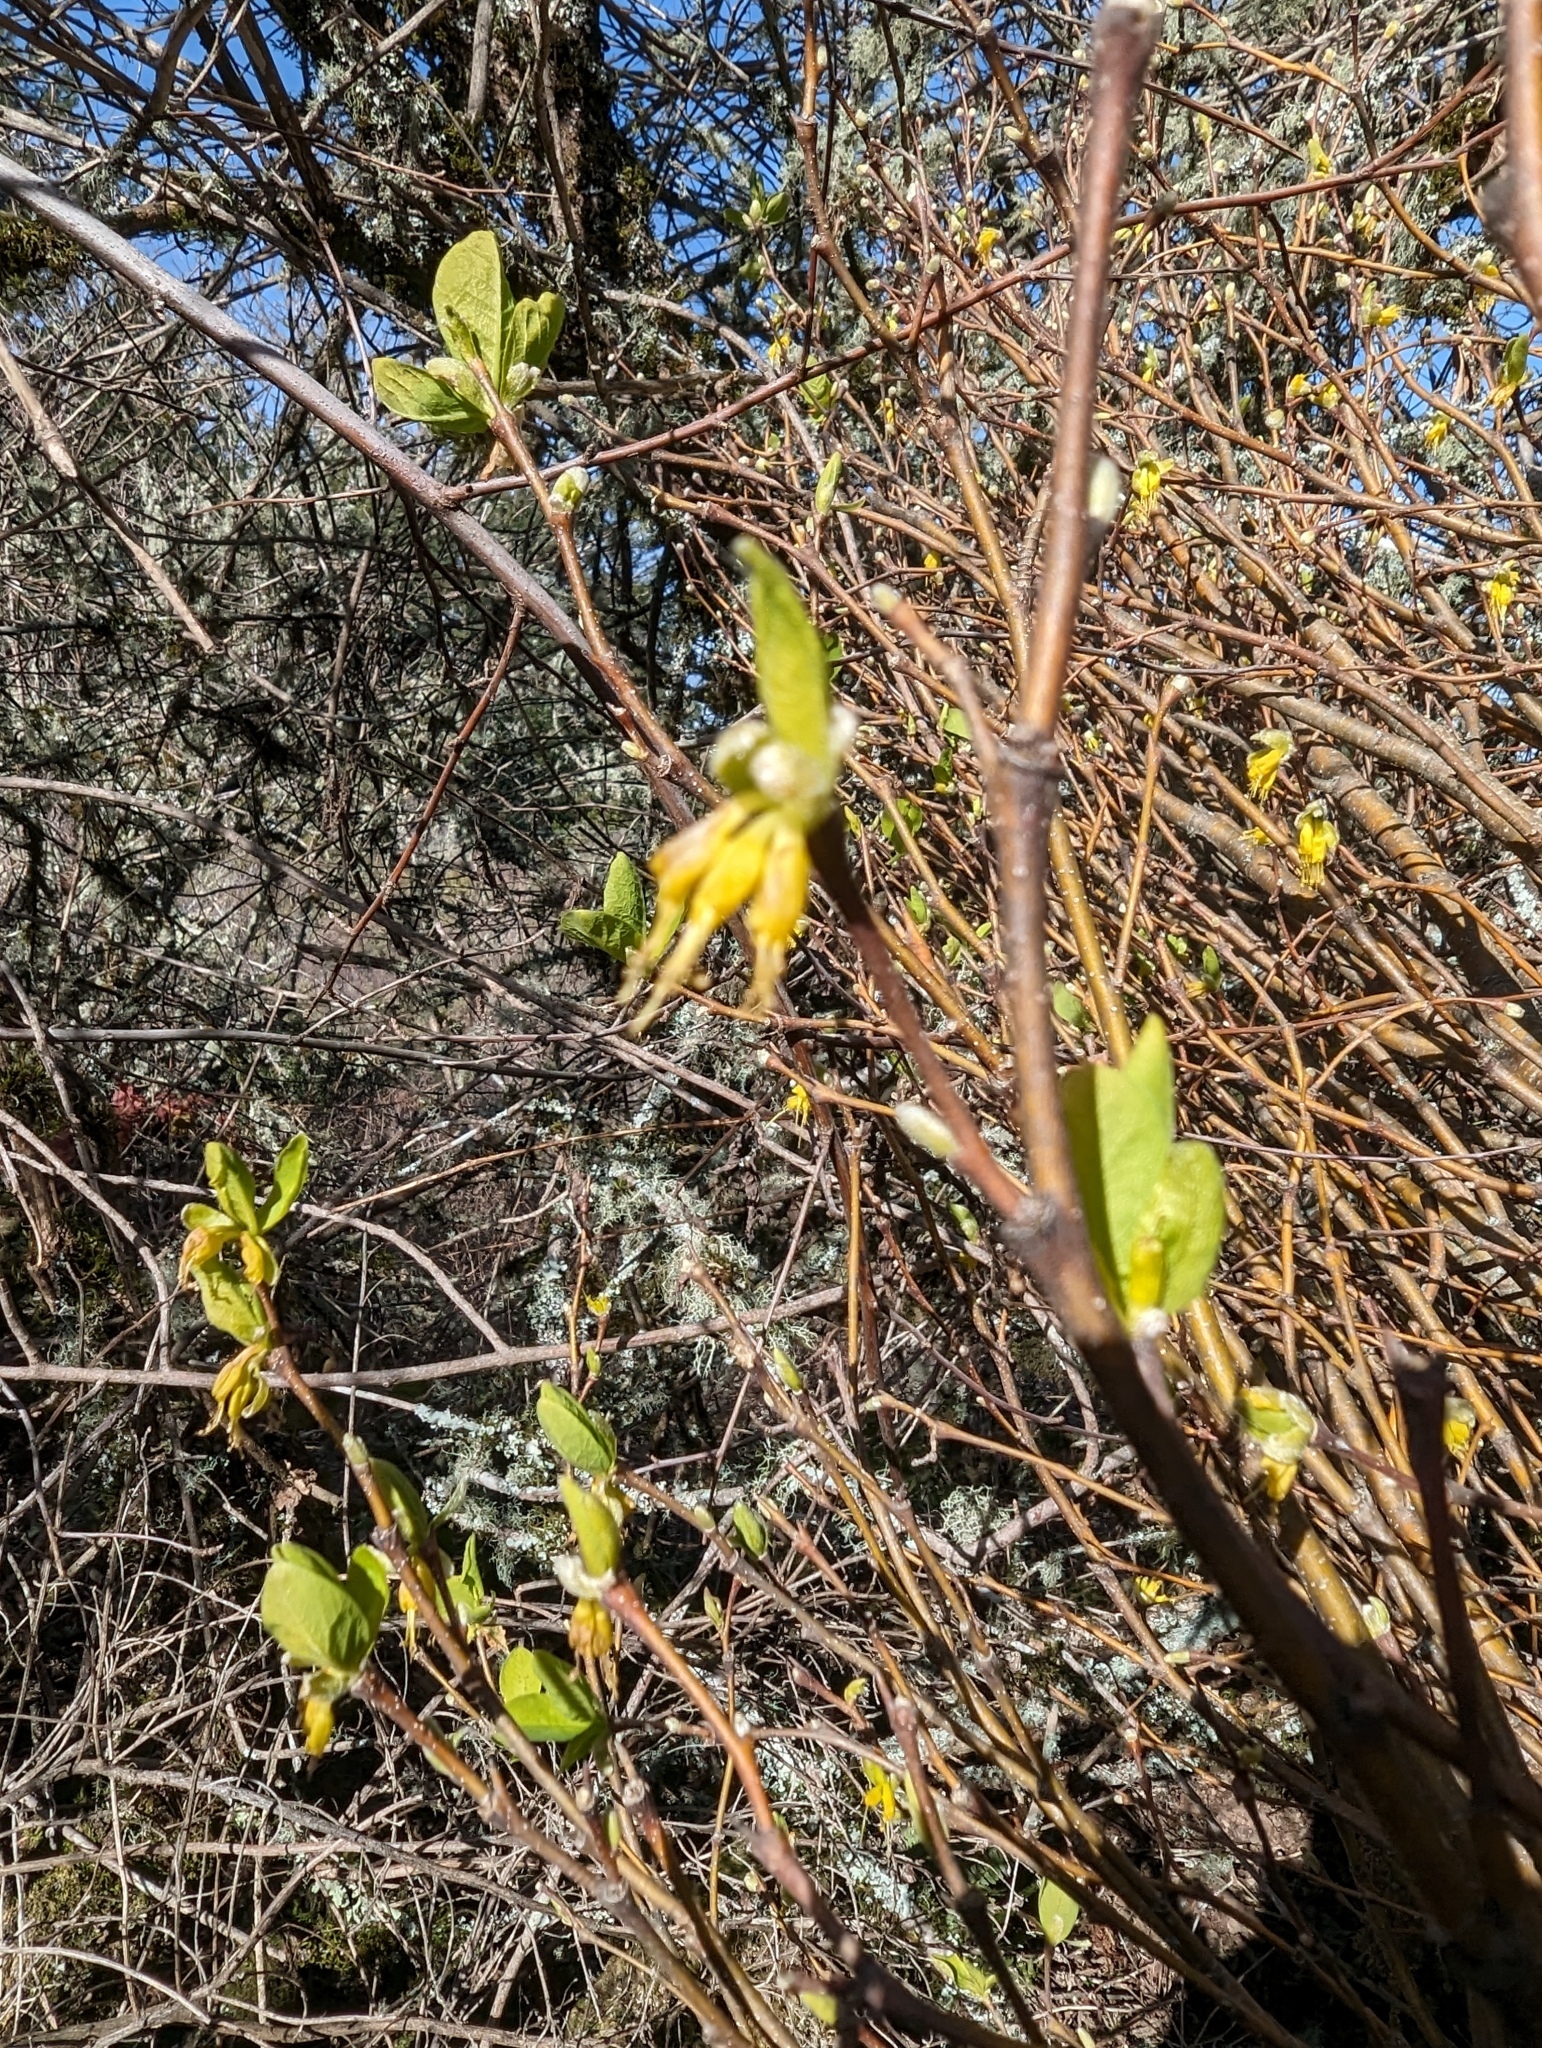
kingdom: Plantae
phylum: Tracheophyta
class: Magnoliopsida
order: Malvales
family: Thymelaeaceae
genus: Dirca
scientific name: Dirca occidentalis
